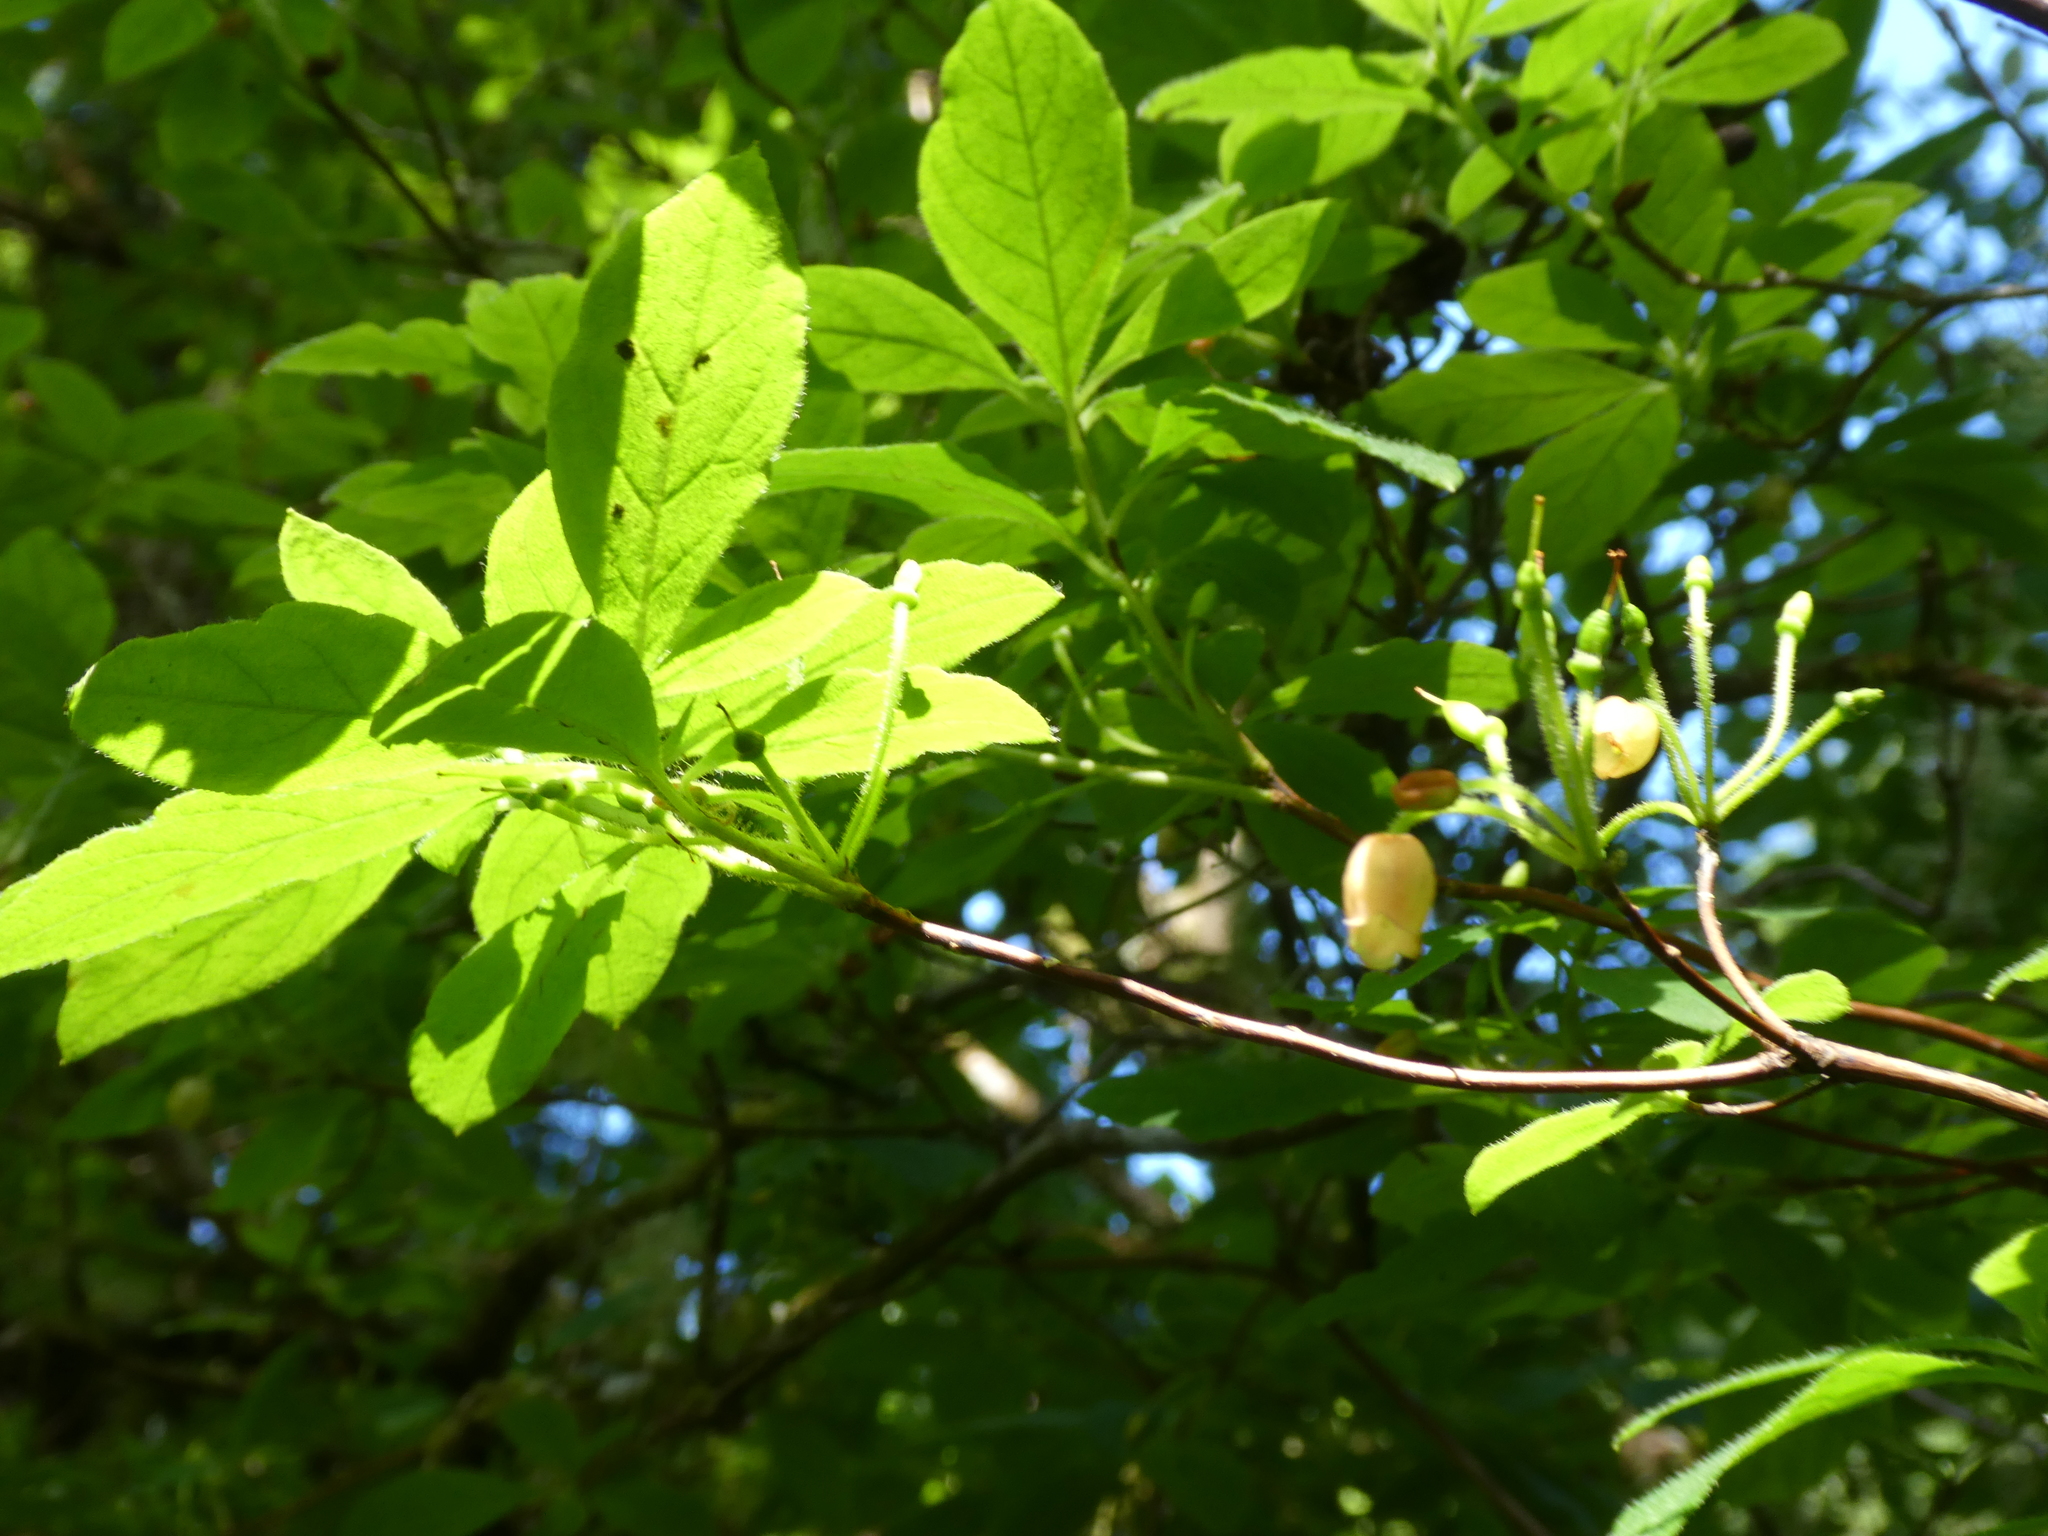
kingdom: Plantae
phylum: Tracheophyta
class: Magnoliopsida
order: Ericales
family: Ericaceae
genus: Rhododendron
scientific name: Rhododendron menziesii
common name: Pacific menziesia
